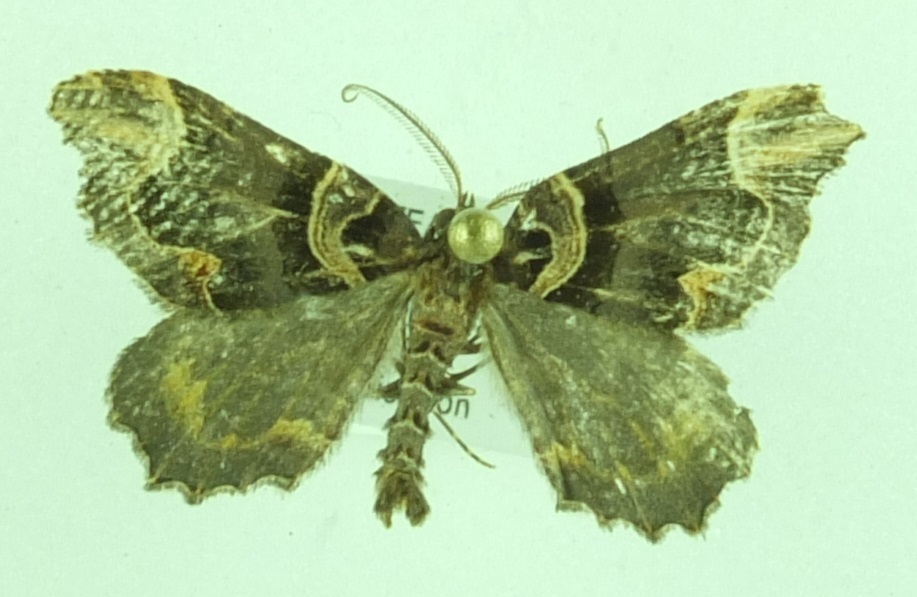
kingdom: Animalia
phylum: Arthropoda
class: Insecta
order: Lepidoptera
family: Geometridae
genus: Asaphodes
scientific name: Asaphodes chlamydota
